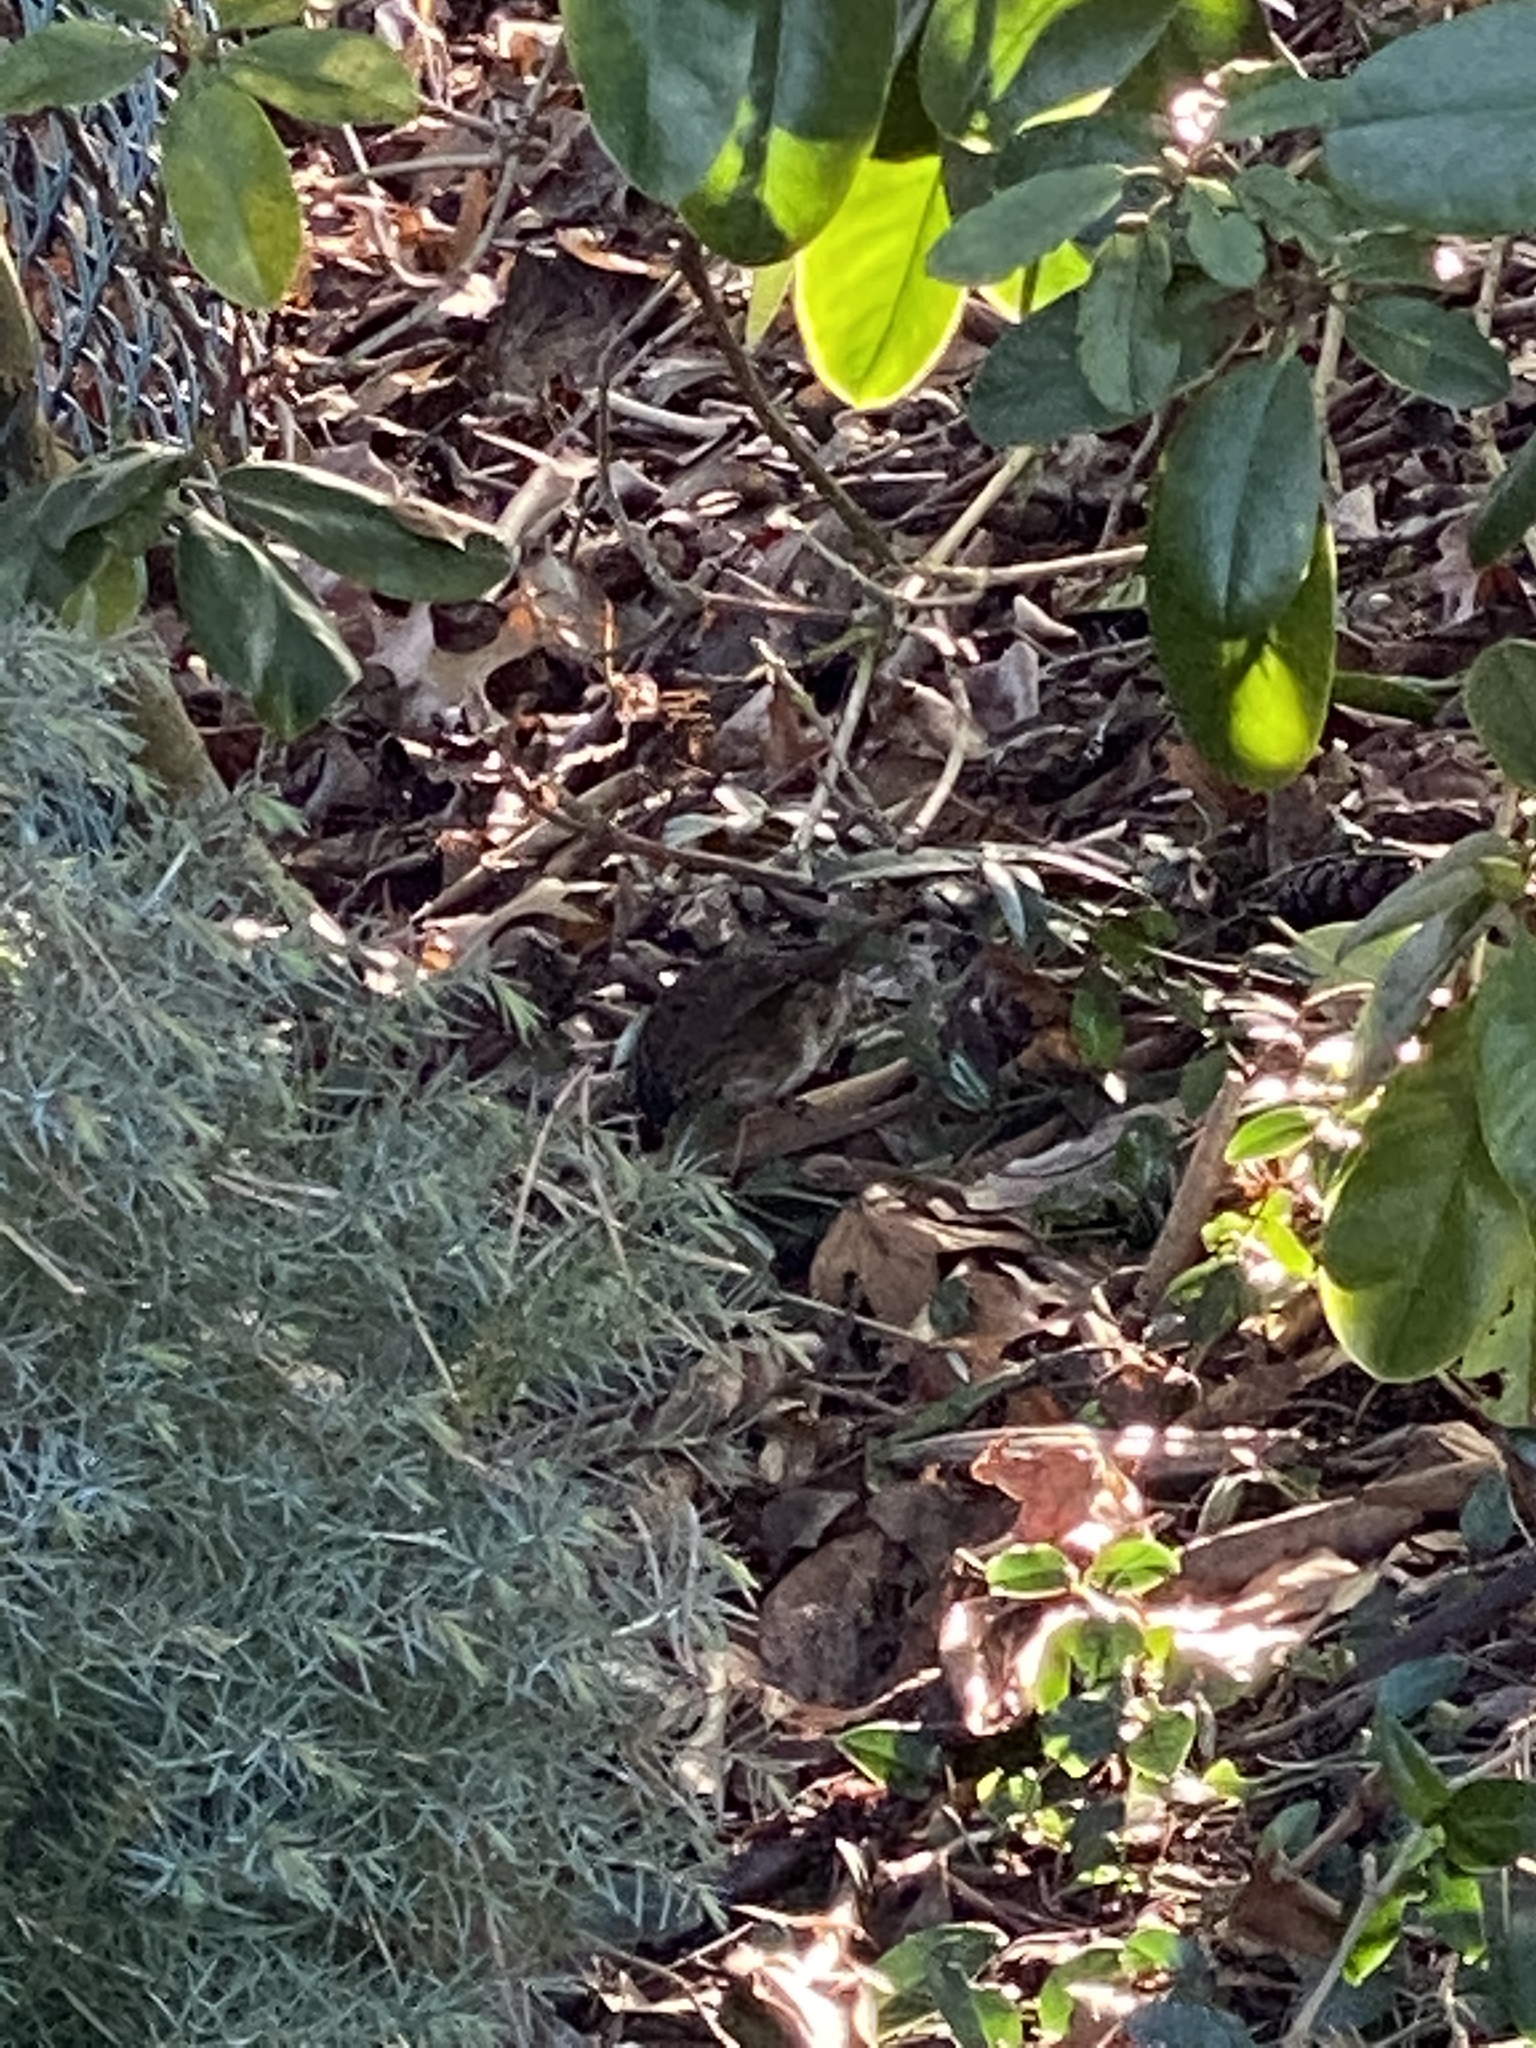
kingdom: Animalia
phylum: Chordata
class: Aves
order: Passeriformes
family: Passerellidae
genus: Melospiza
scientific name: Melospiza melodia
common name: Song sparrow
